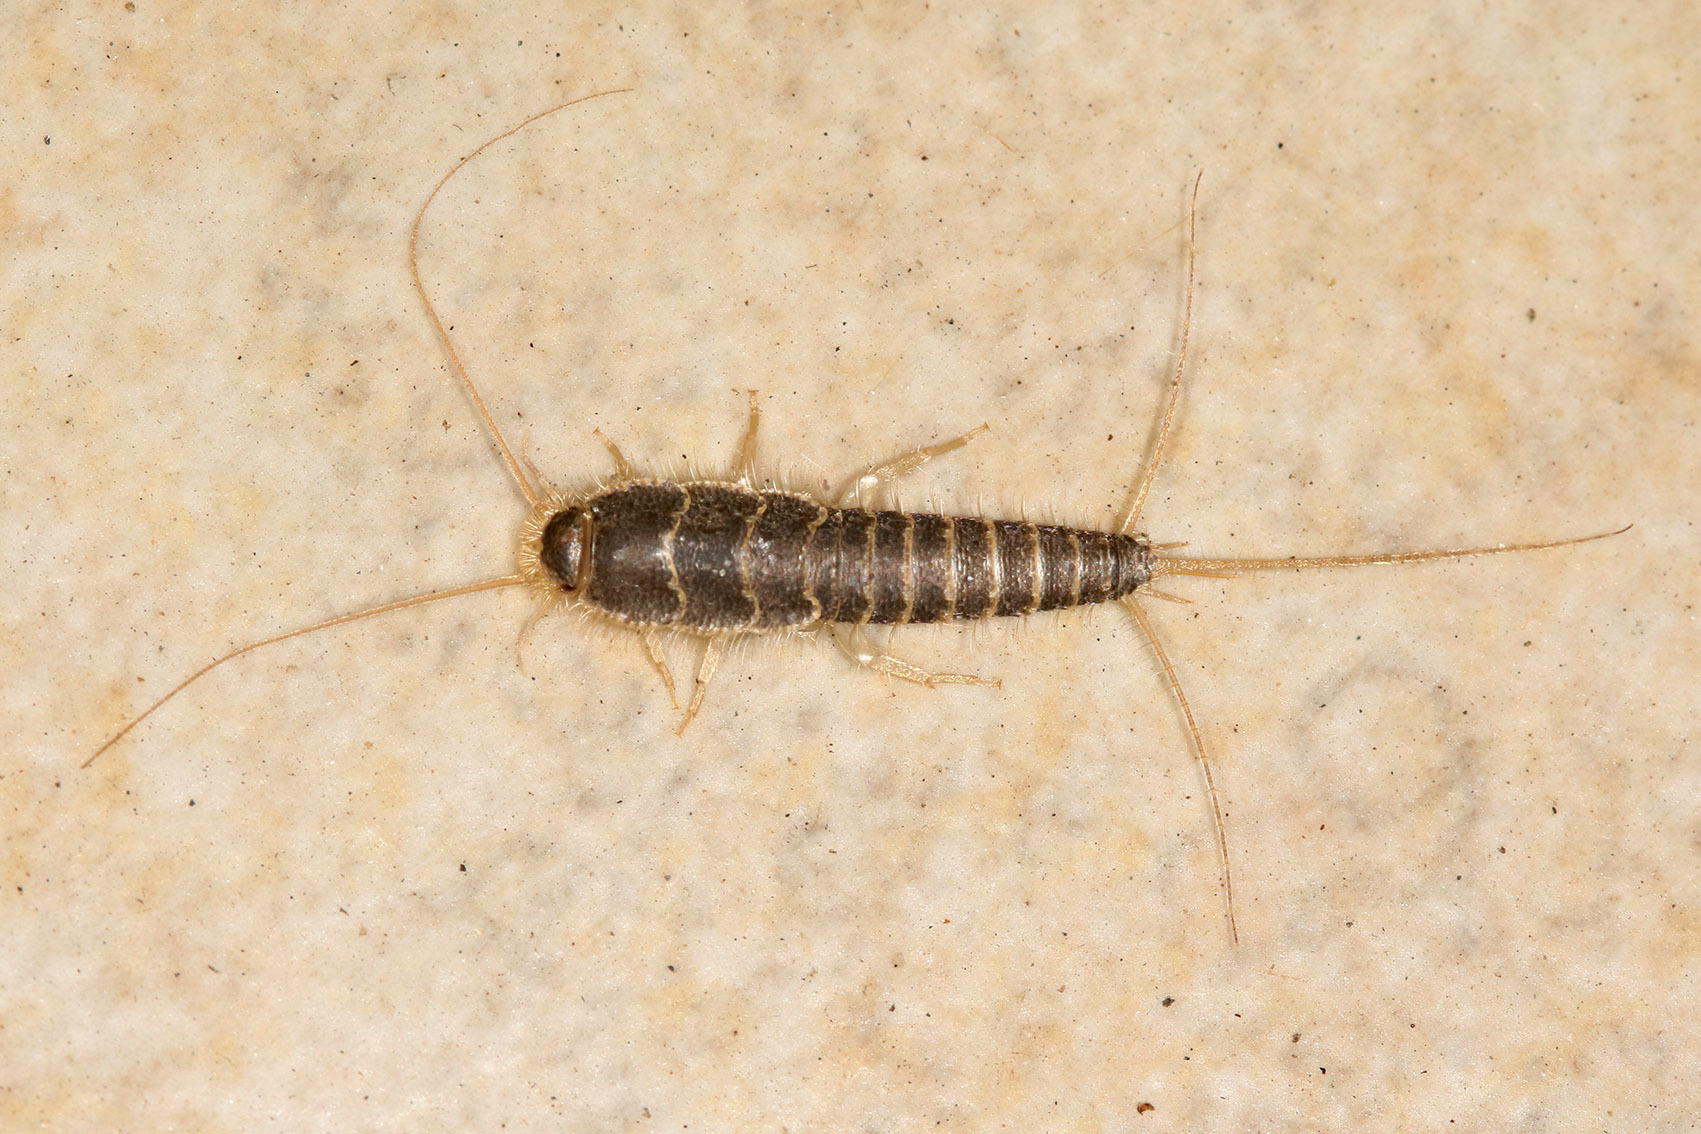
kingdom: Animalia
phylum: Arthropoda
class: Insecta
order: Zygentoma
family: Lepismatidae
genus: Ctenolepisma
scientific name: Ctenolepisma longicaudatum
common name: Silverfish
